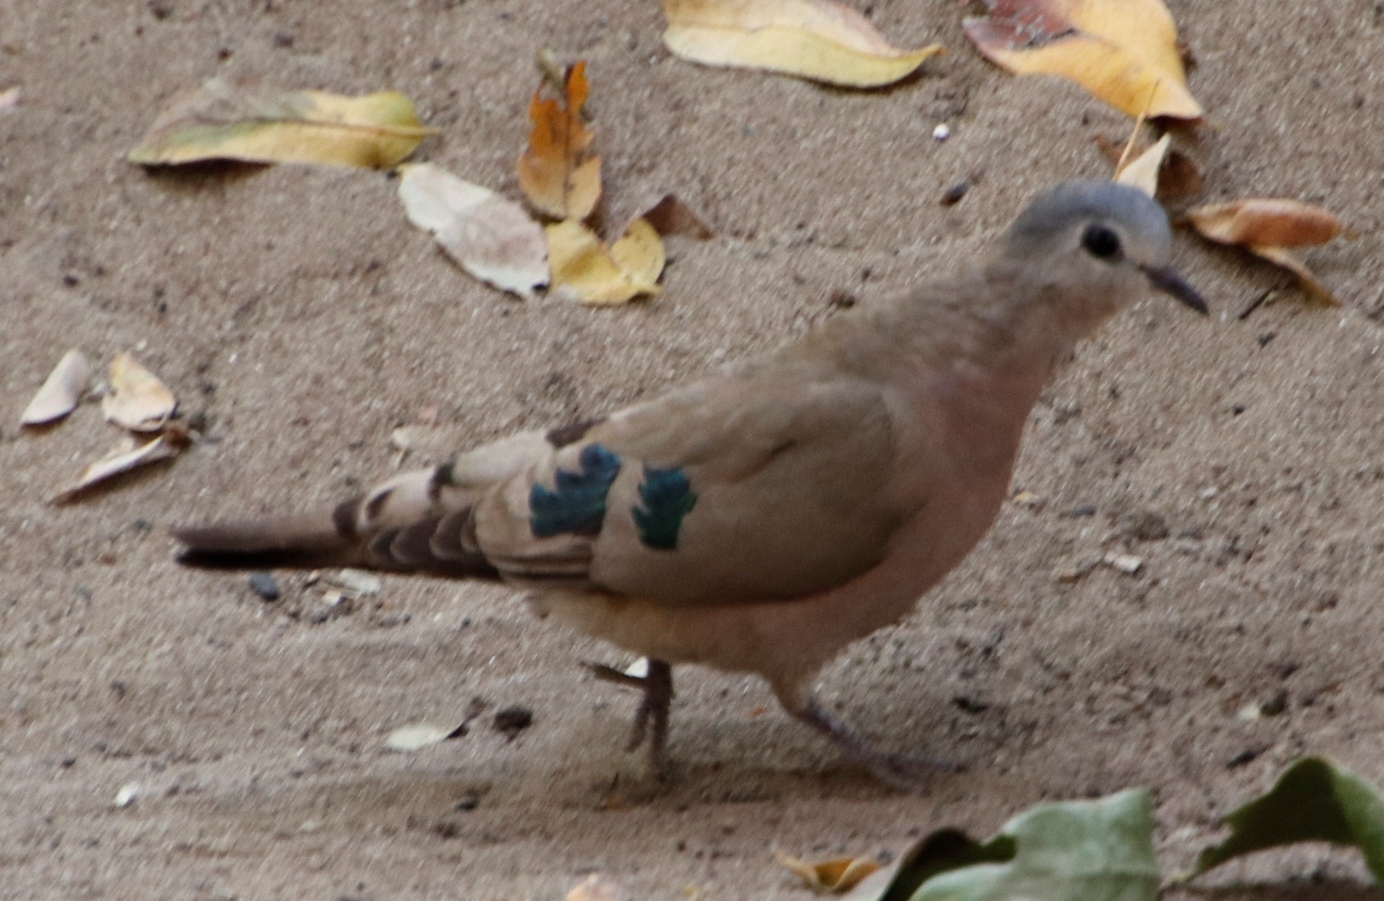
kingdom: Animalia
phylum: Chordata
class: Aves
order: Columbiformes
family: Columbidae
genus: Turtur
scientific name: Turtur chalcospilos
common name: Emerald-spotted wood dove
